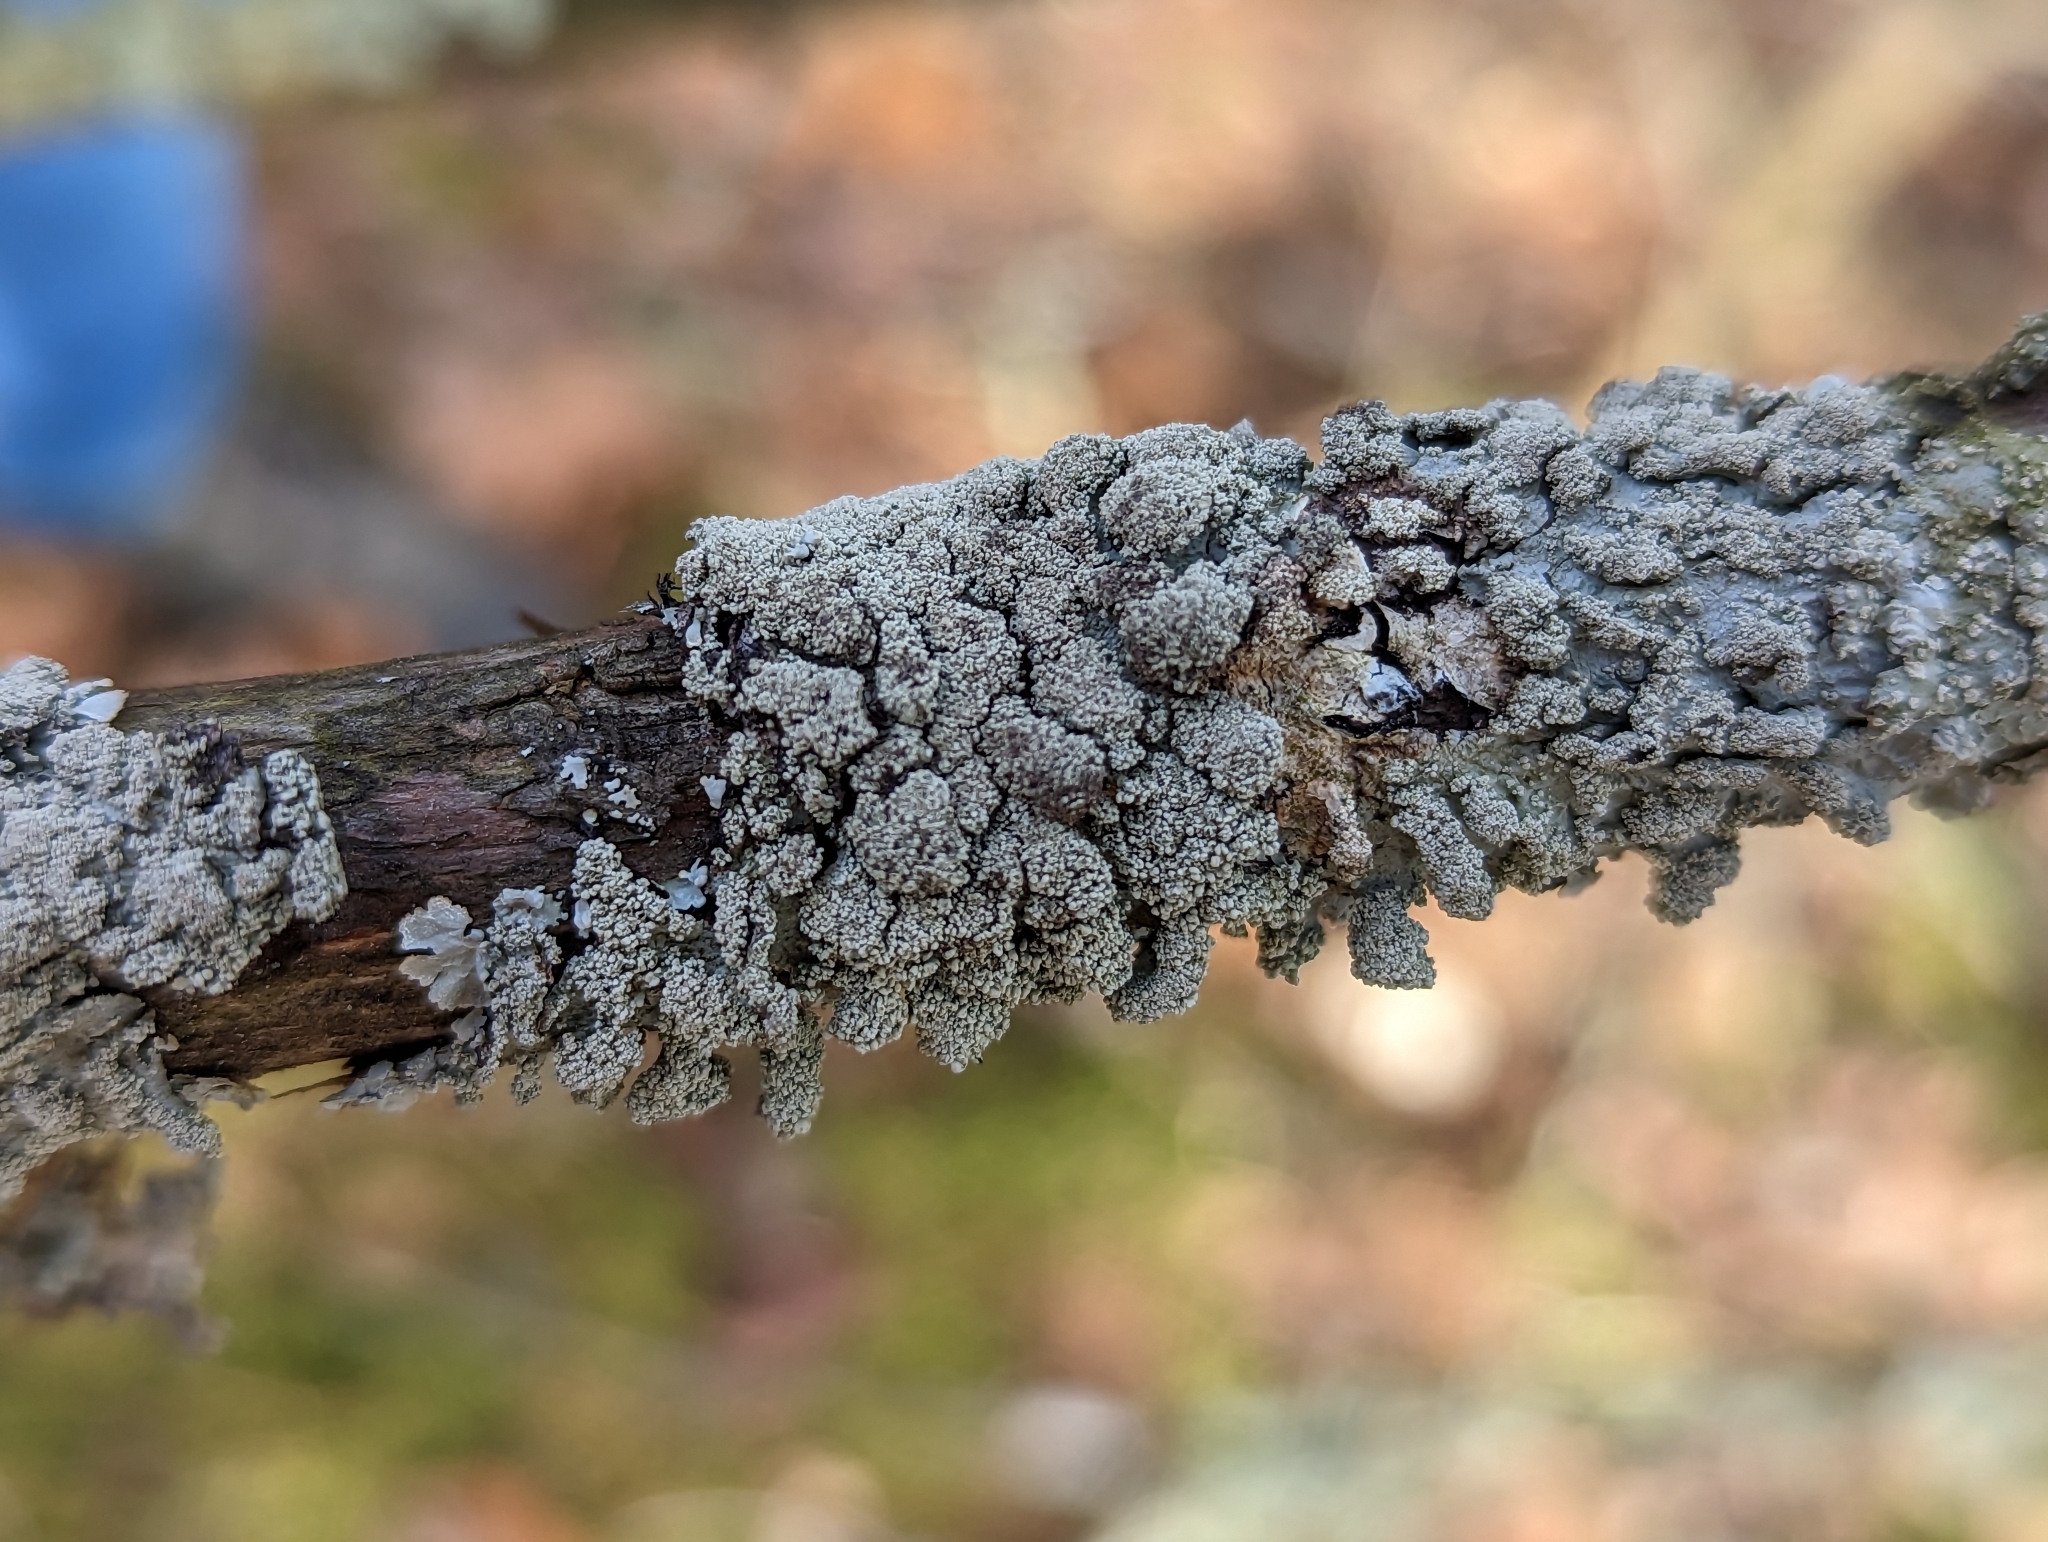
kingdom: Fungi
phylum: Ascomycota
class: Lecanoromycetes
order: Lecanorales
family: Parmeliaceae
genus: Hypotrachyna
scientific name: Hypotrachyna showmanii
